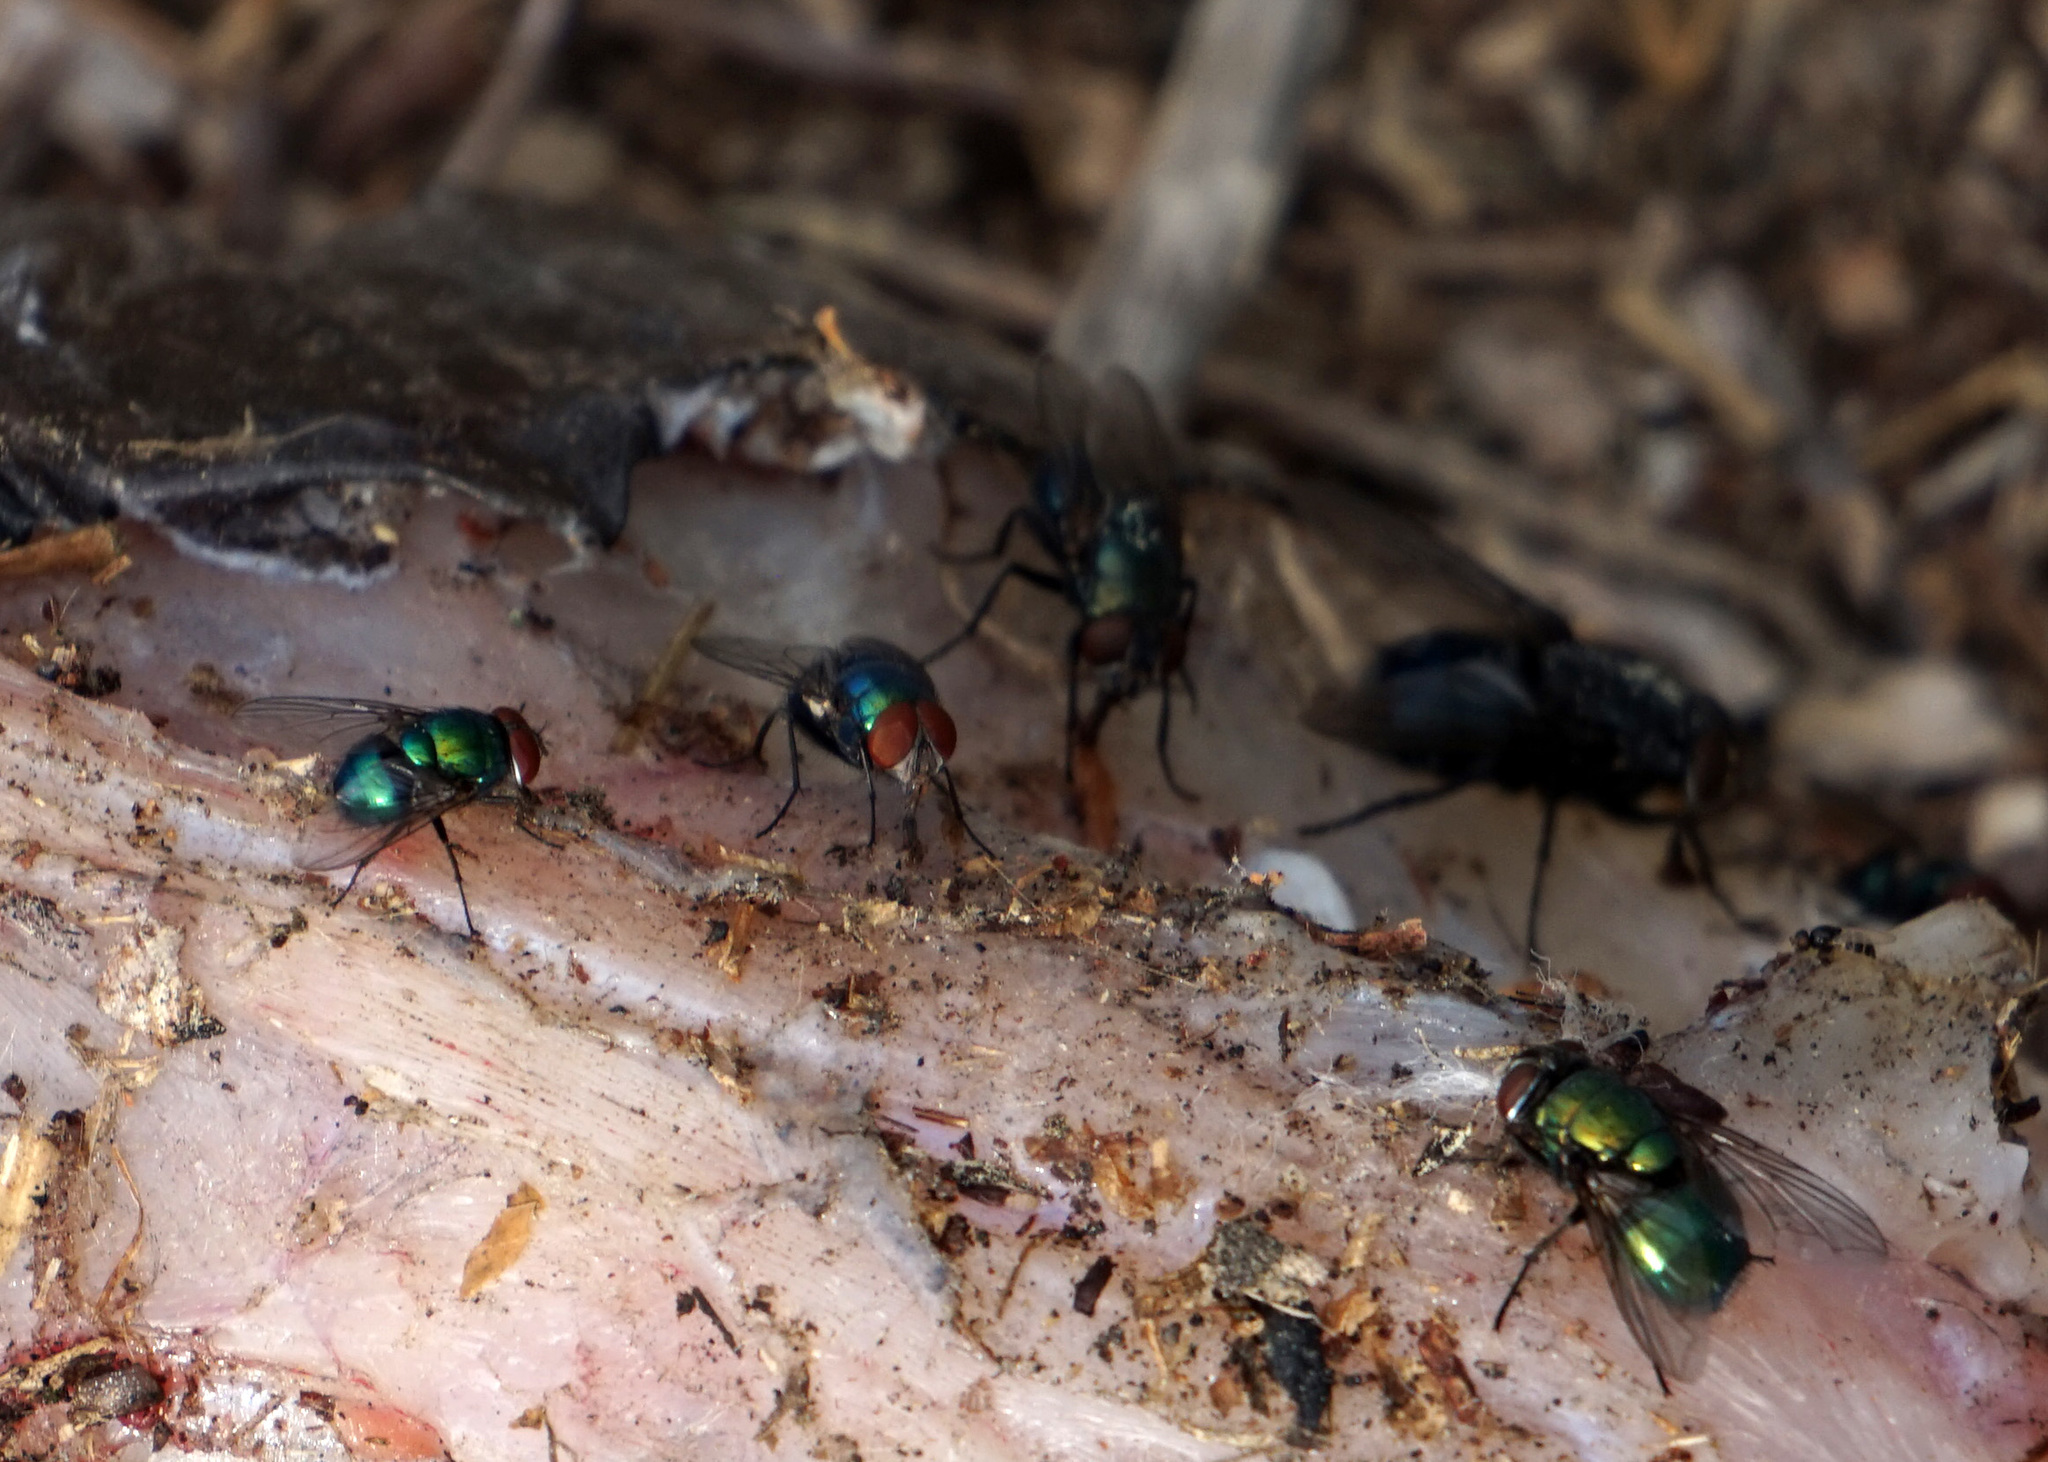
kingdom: Animalia
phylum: Arthropoda
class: Insecta
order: Diptera
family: Calliphoridae
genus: Lucilia
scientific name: Lucilia caeruleiviridis
